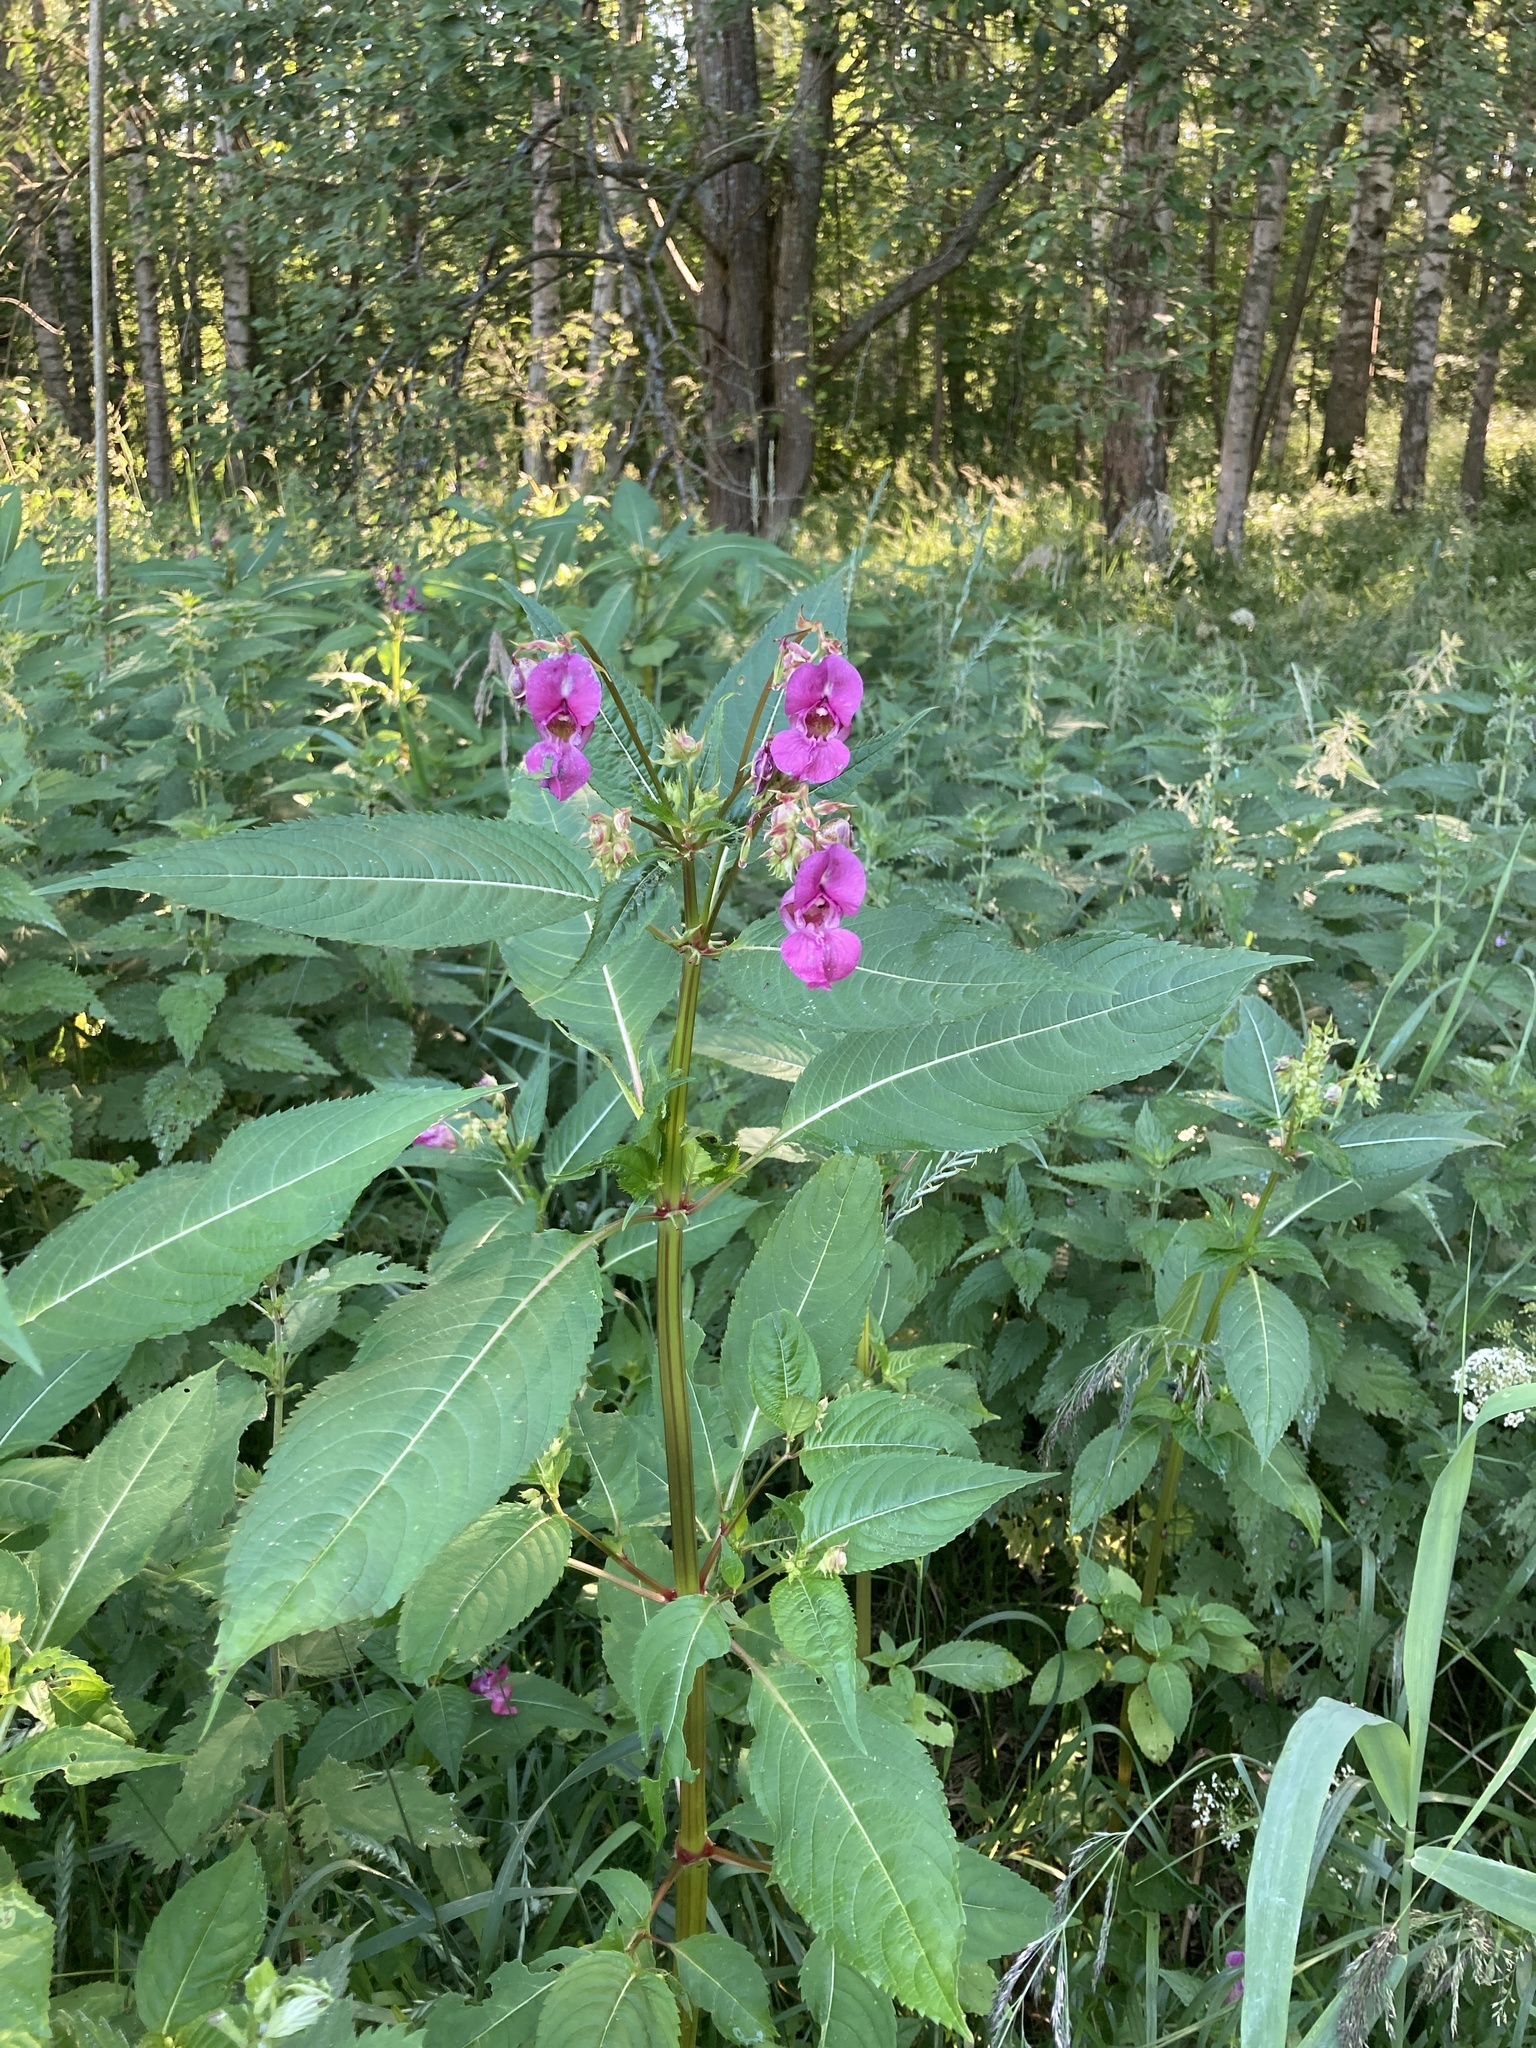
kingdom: Plantae
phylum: Tracheophyta
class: Magnoliopsida
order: Ericales
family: Balsaminaceae
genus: Impatiens
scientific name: Impatiens glandulifera
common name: Himalayan balsam
